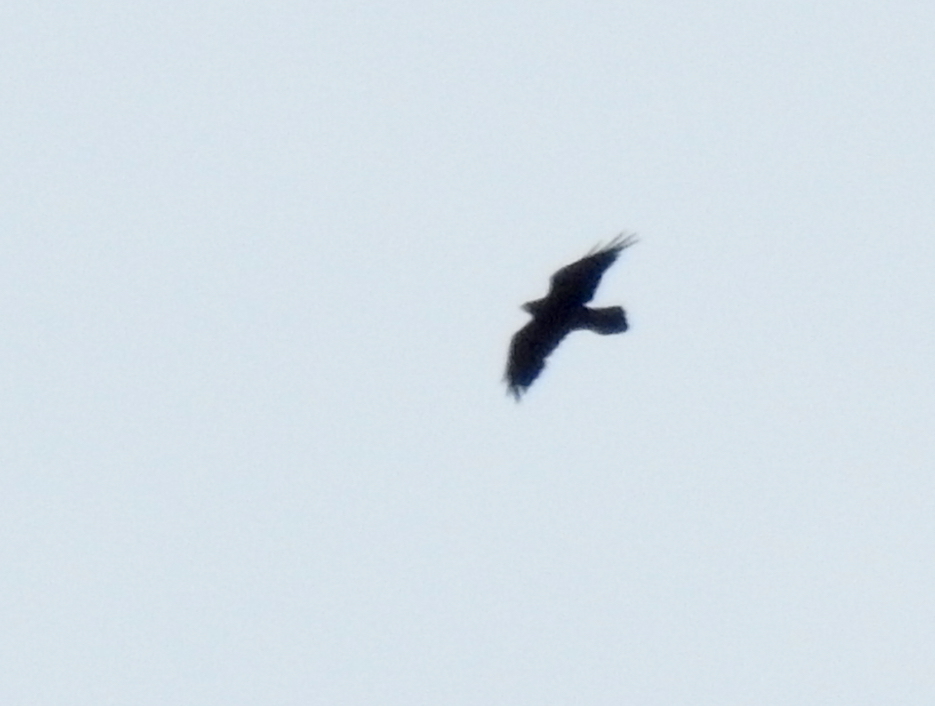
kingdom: Animalia
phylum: Chordata
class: Aves
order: Passeriformes
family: Corvidae
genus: Corvus
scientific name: Corvus corax
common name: Common raven
